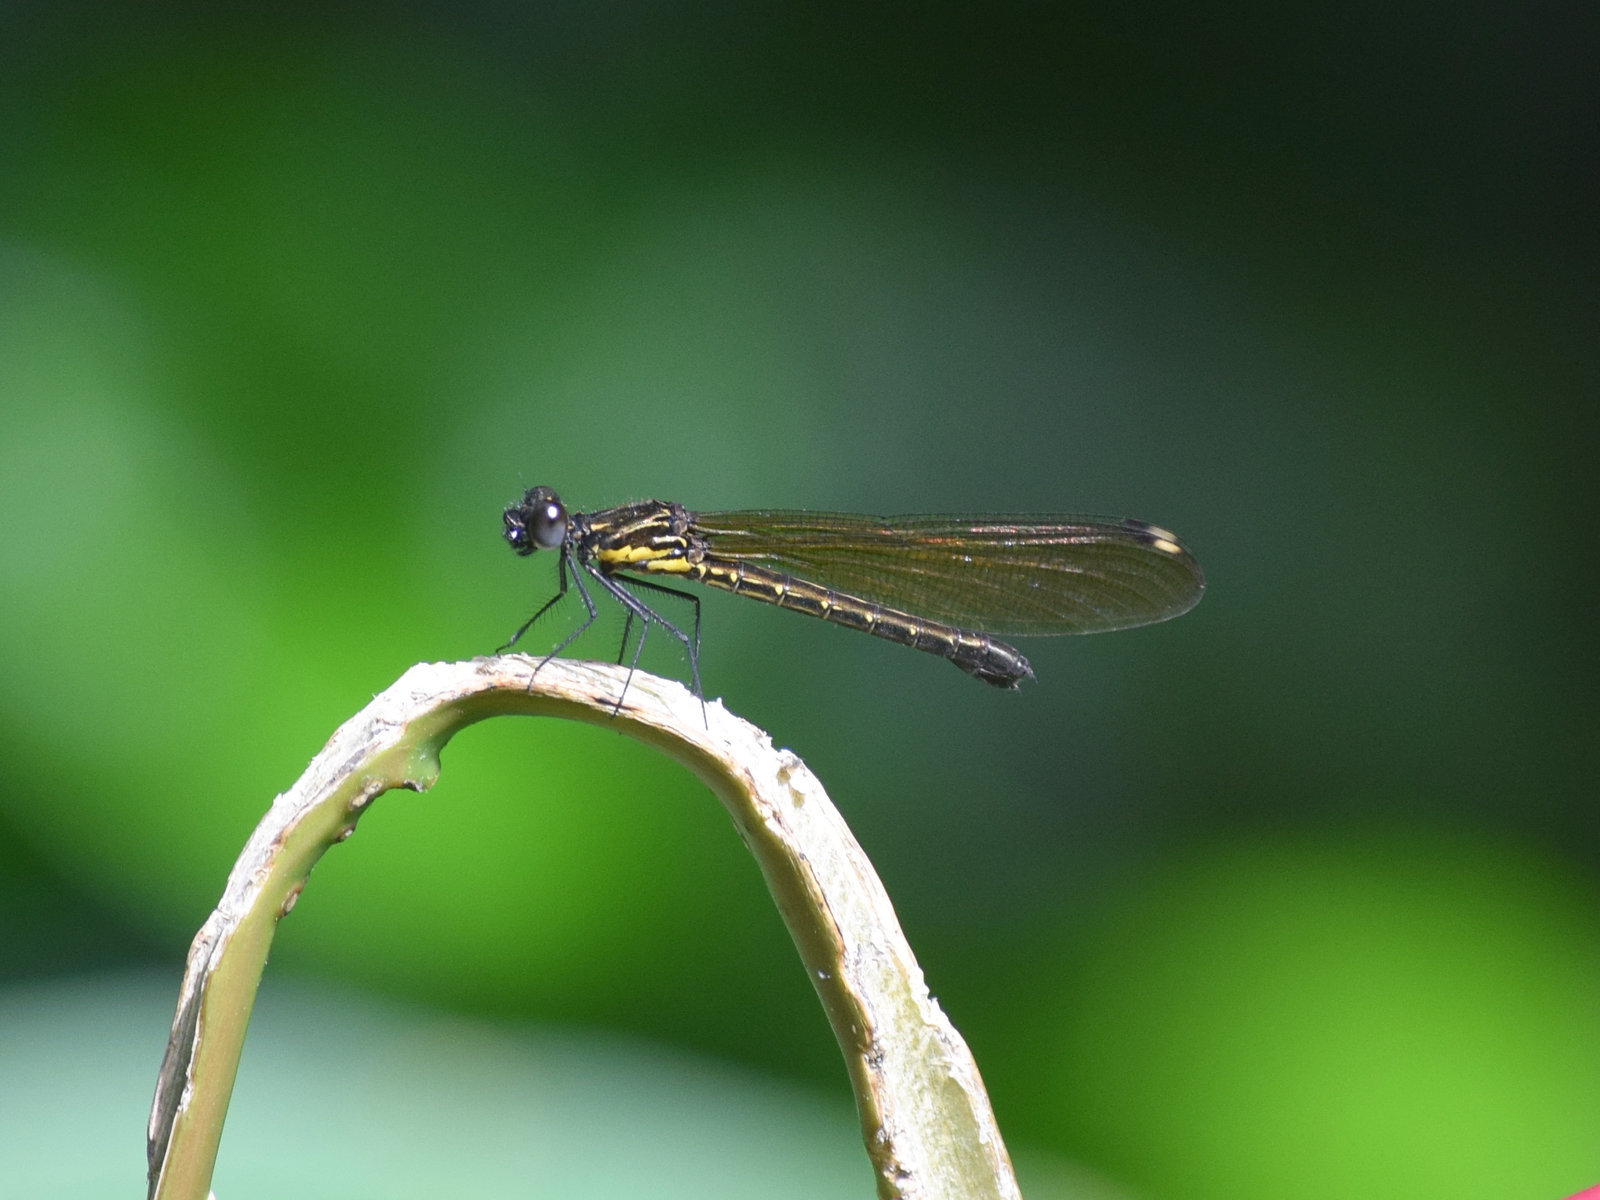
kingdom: Animalia
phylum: Arthropoda
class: Insecta
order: Odonata
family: Chlorocyphidae
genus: Aristocypha
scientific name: Aristocypha trifasciata
